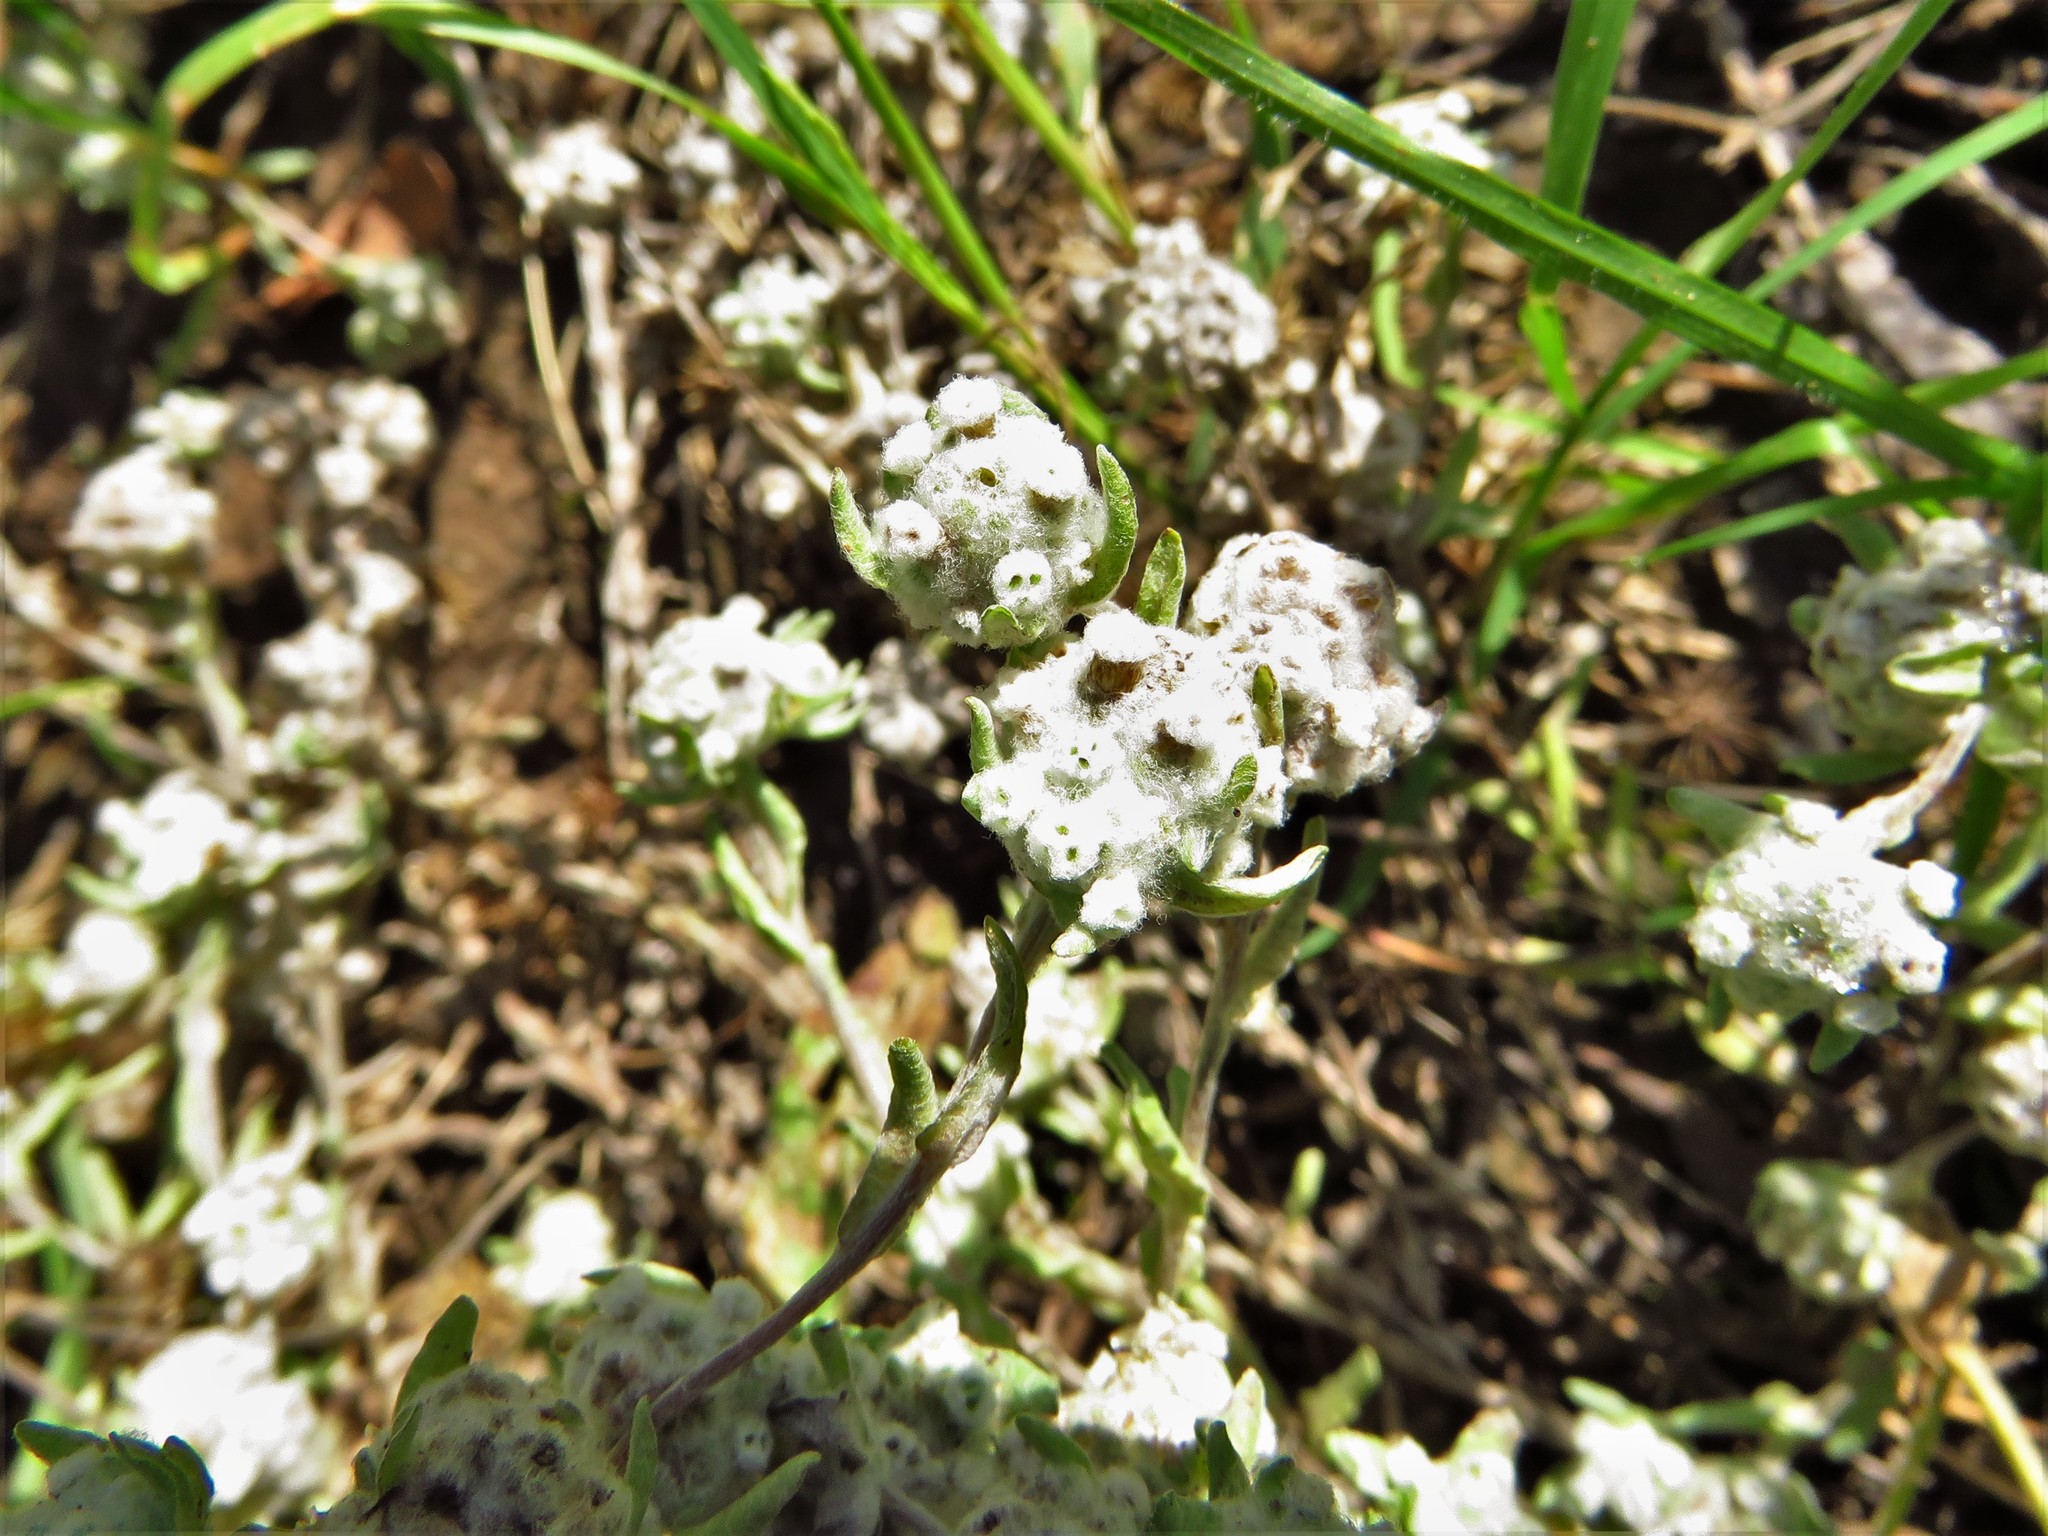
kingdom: Plantae
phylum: Tracheophyta
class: Magnoliopsida
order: Asterales
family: Asteraceae
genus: Diaperia
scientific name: Diaperia verna
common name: Many-stem rabbit-tobacco
